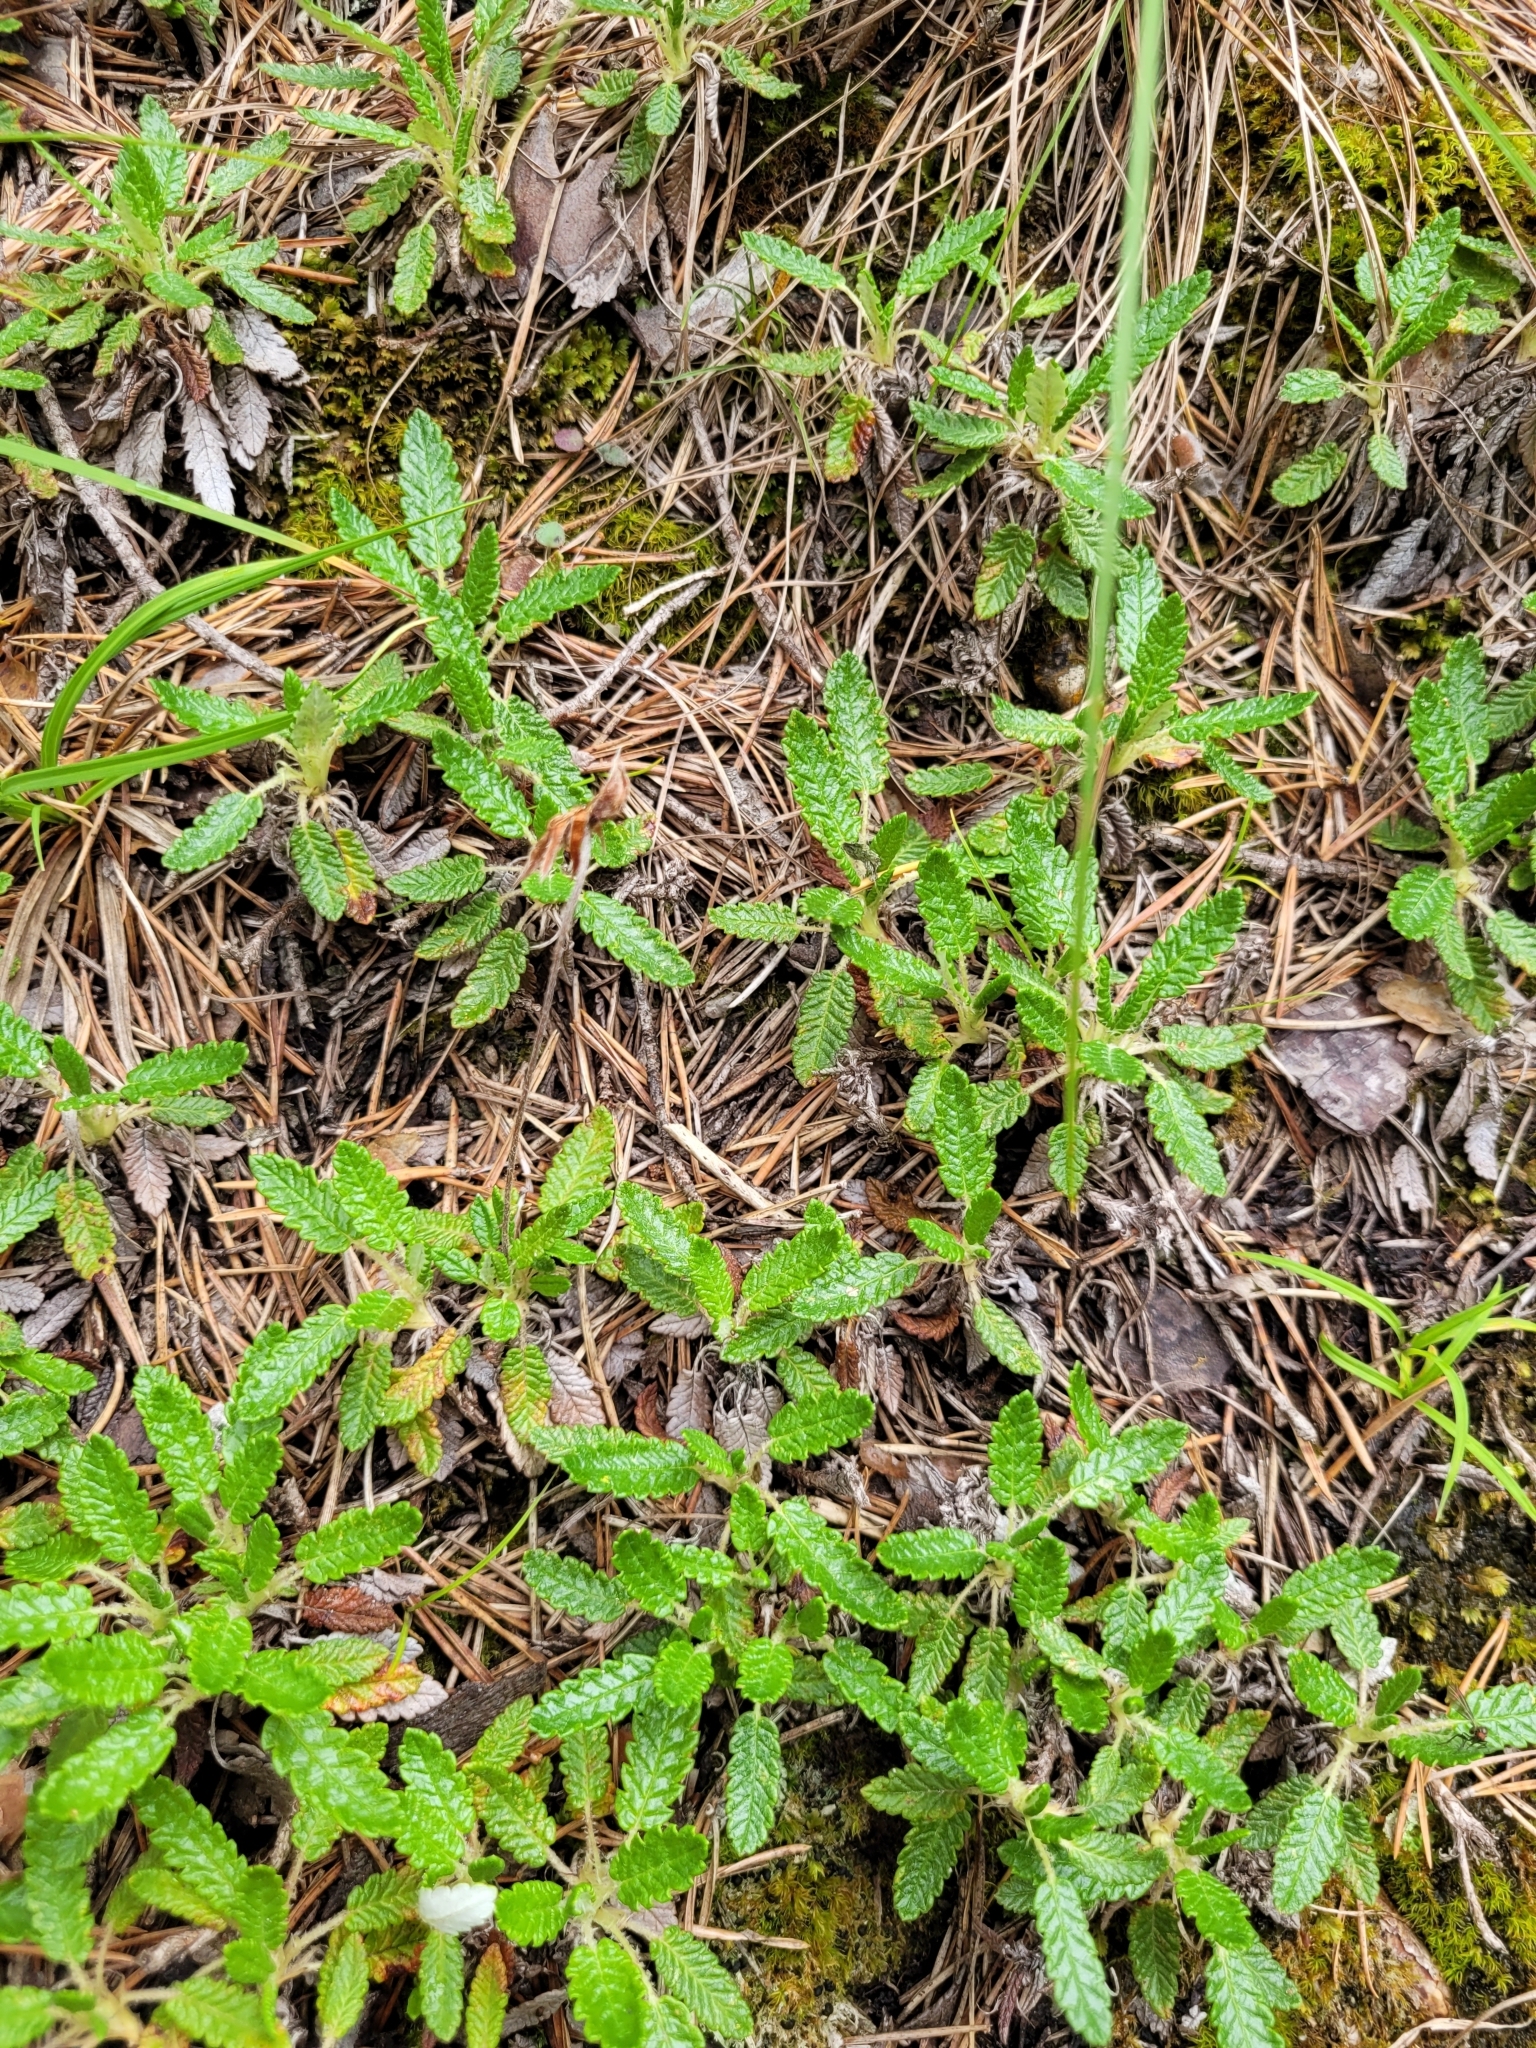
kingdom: Plantae
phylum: Tracheophyta
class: Magnoliopsida
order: Rosales
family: Rosaceae
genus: Dryas
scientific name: Dryas octopetala
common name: Eight-petal mountain-avens
